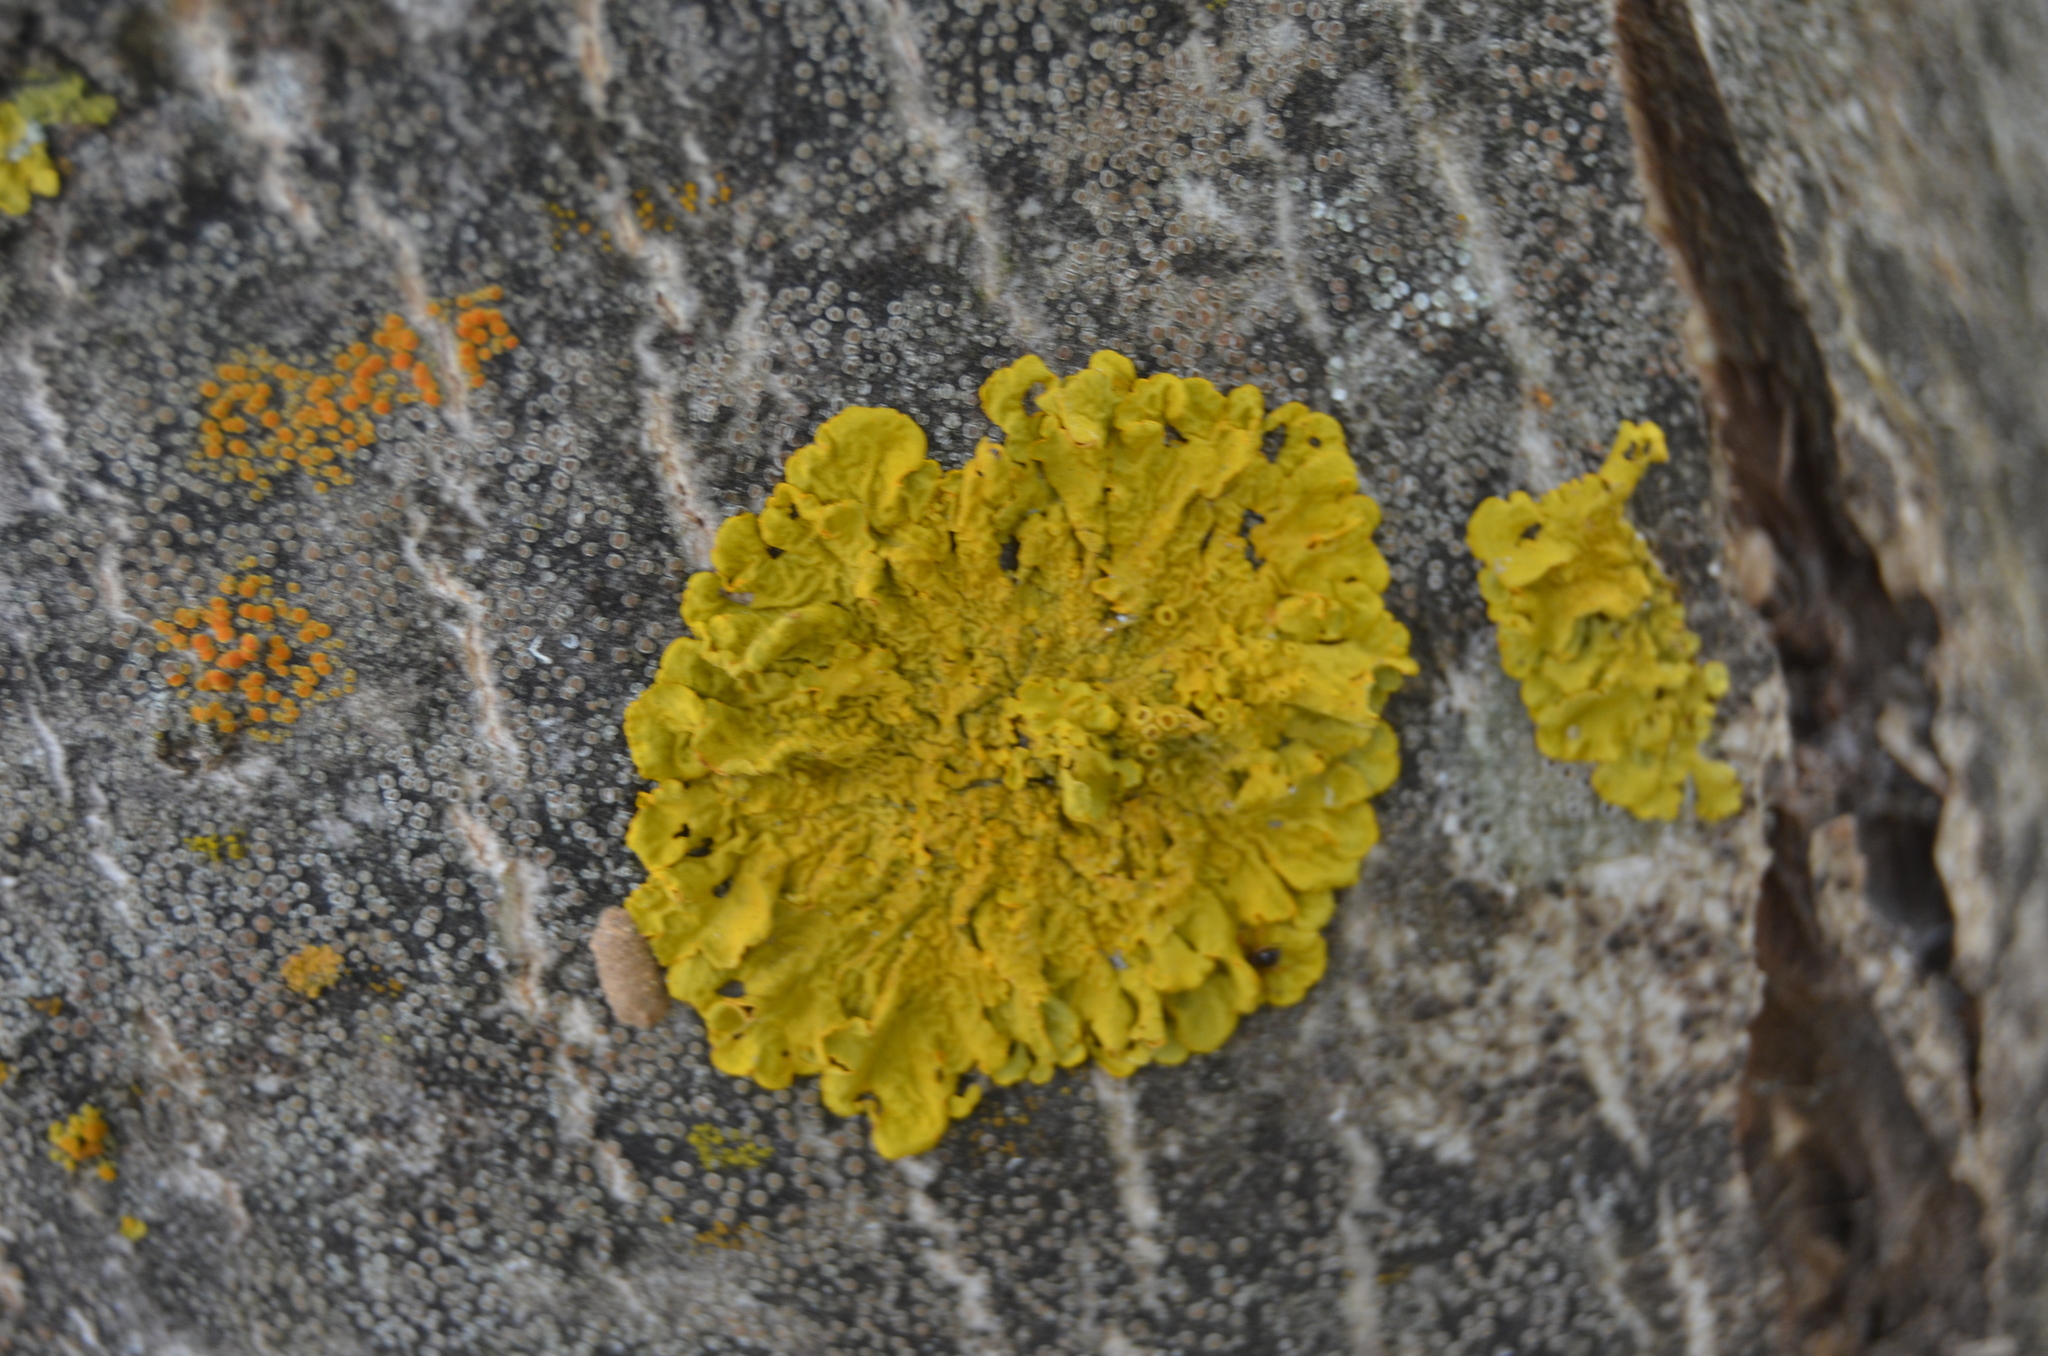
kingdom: Fungi
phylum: Ascomycota
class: Lecanoromycetes
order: Teloschistales
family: Teloschistaceae
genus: Xanthoria
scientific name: Xanthoria parietina
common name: Common orange lichen
